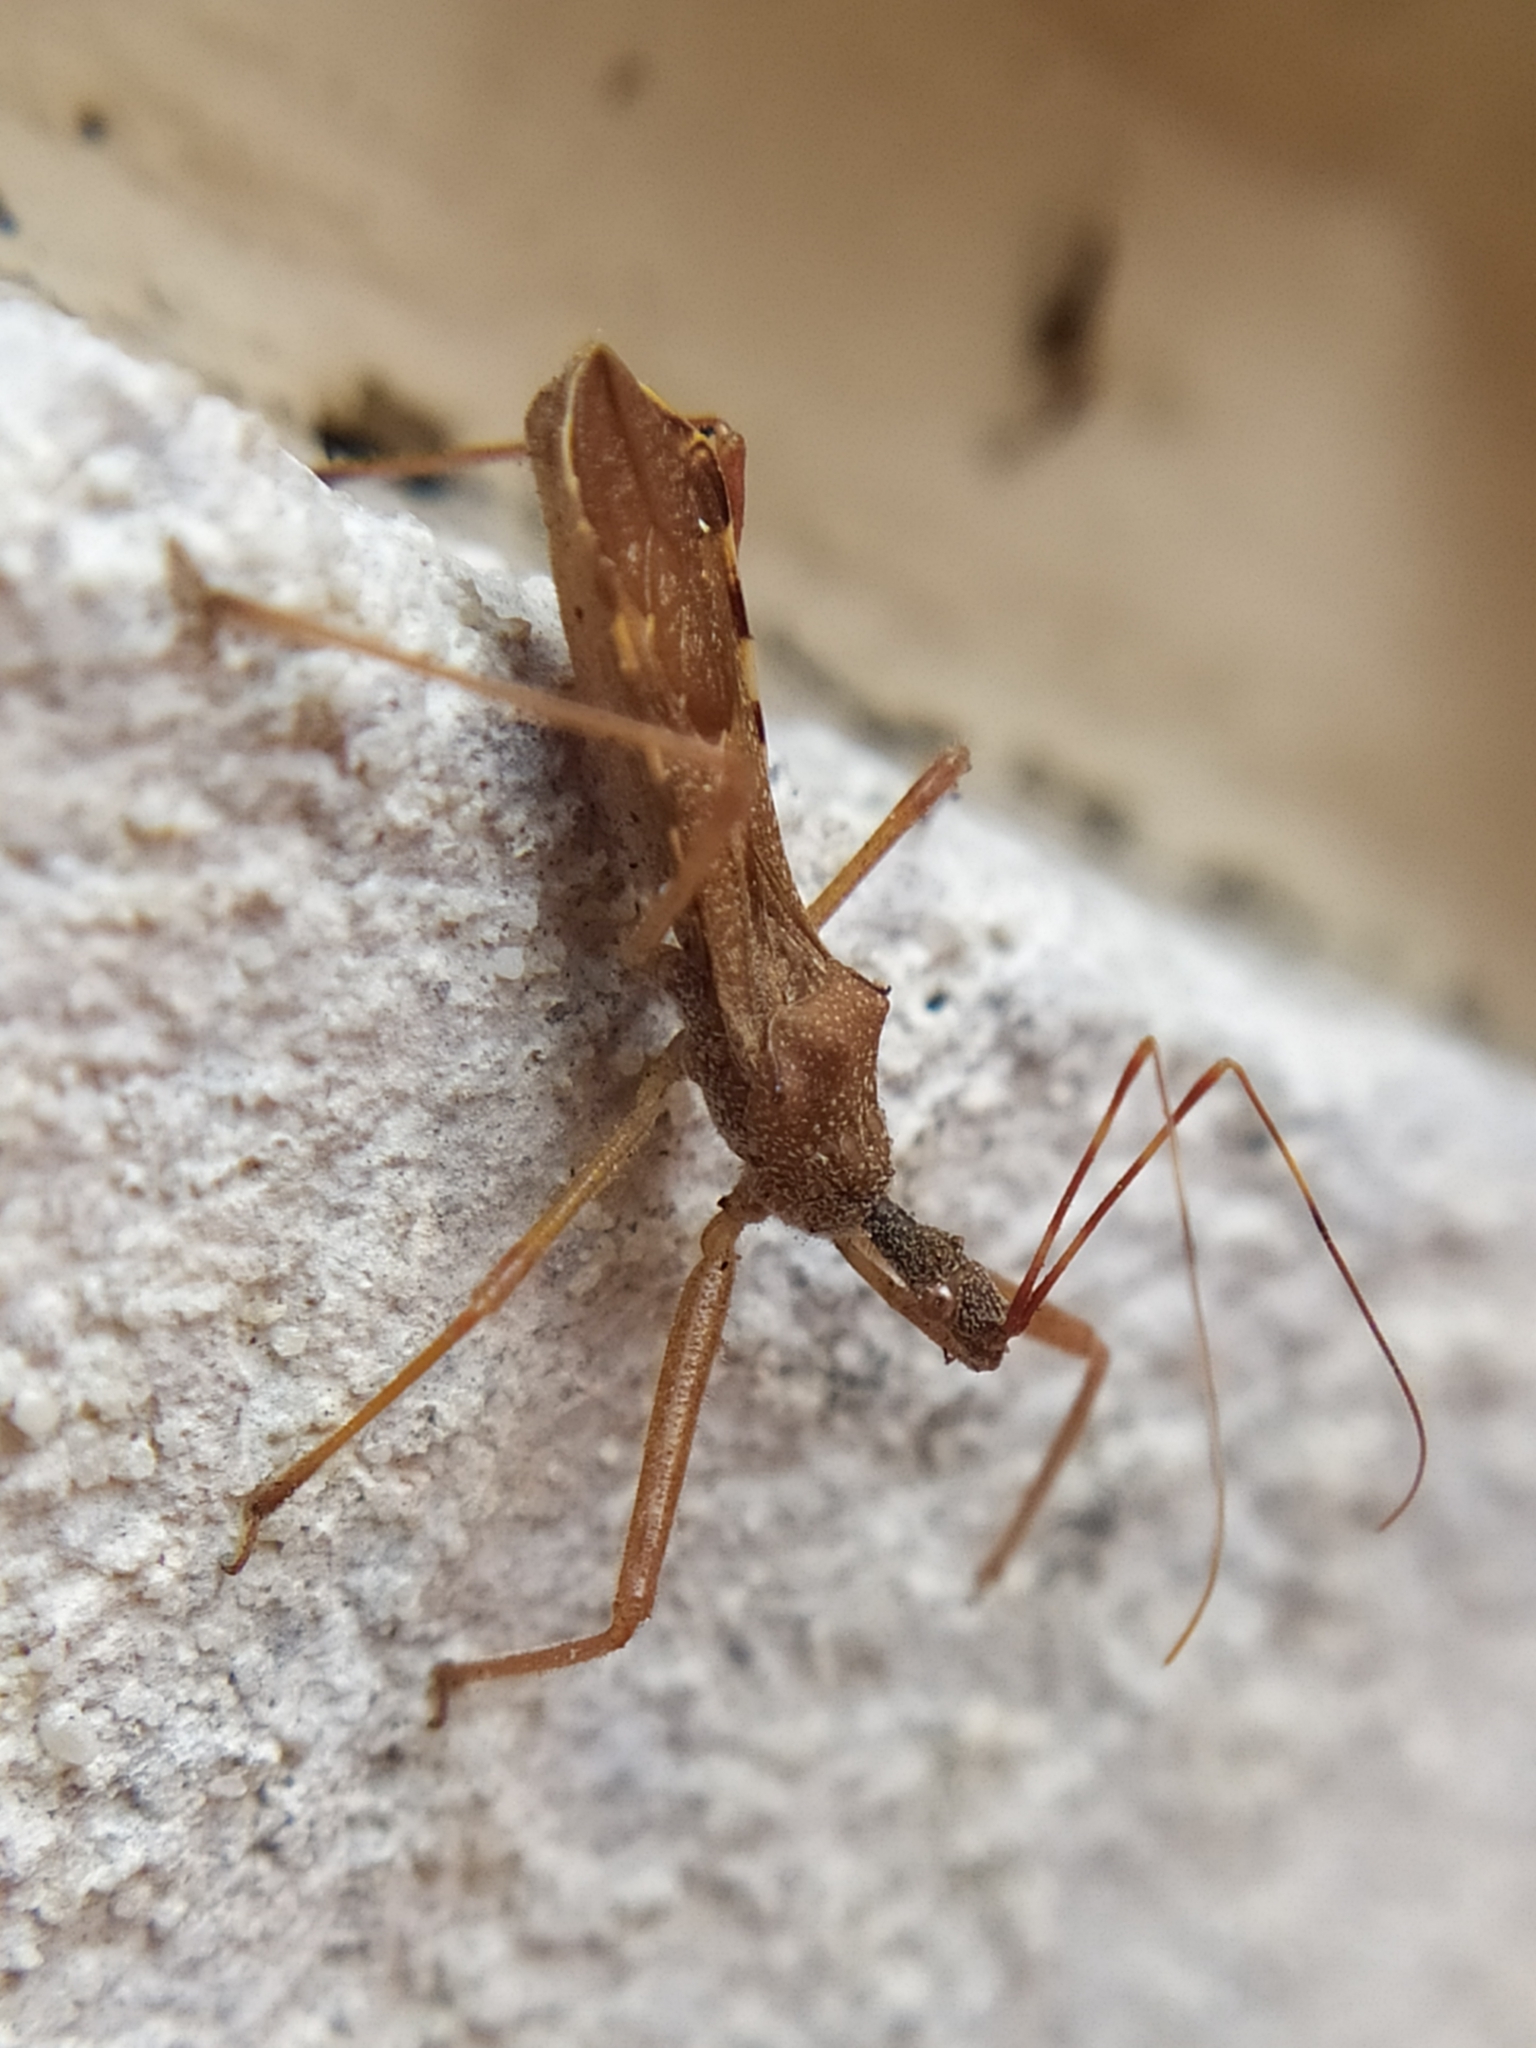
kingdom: Animalia
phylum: Arthropoda
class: Insecta
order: Hemiptera
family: Reduviidae
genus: Nagusta
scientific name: Nagusta goedelii
